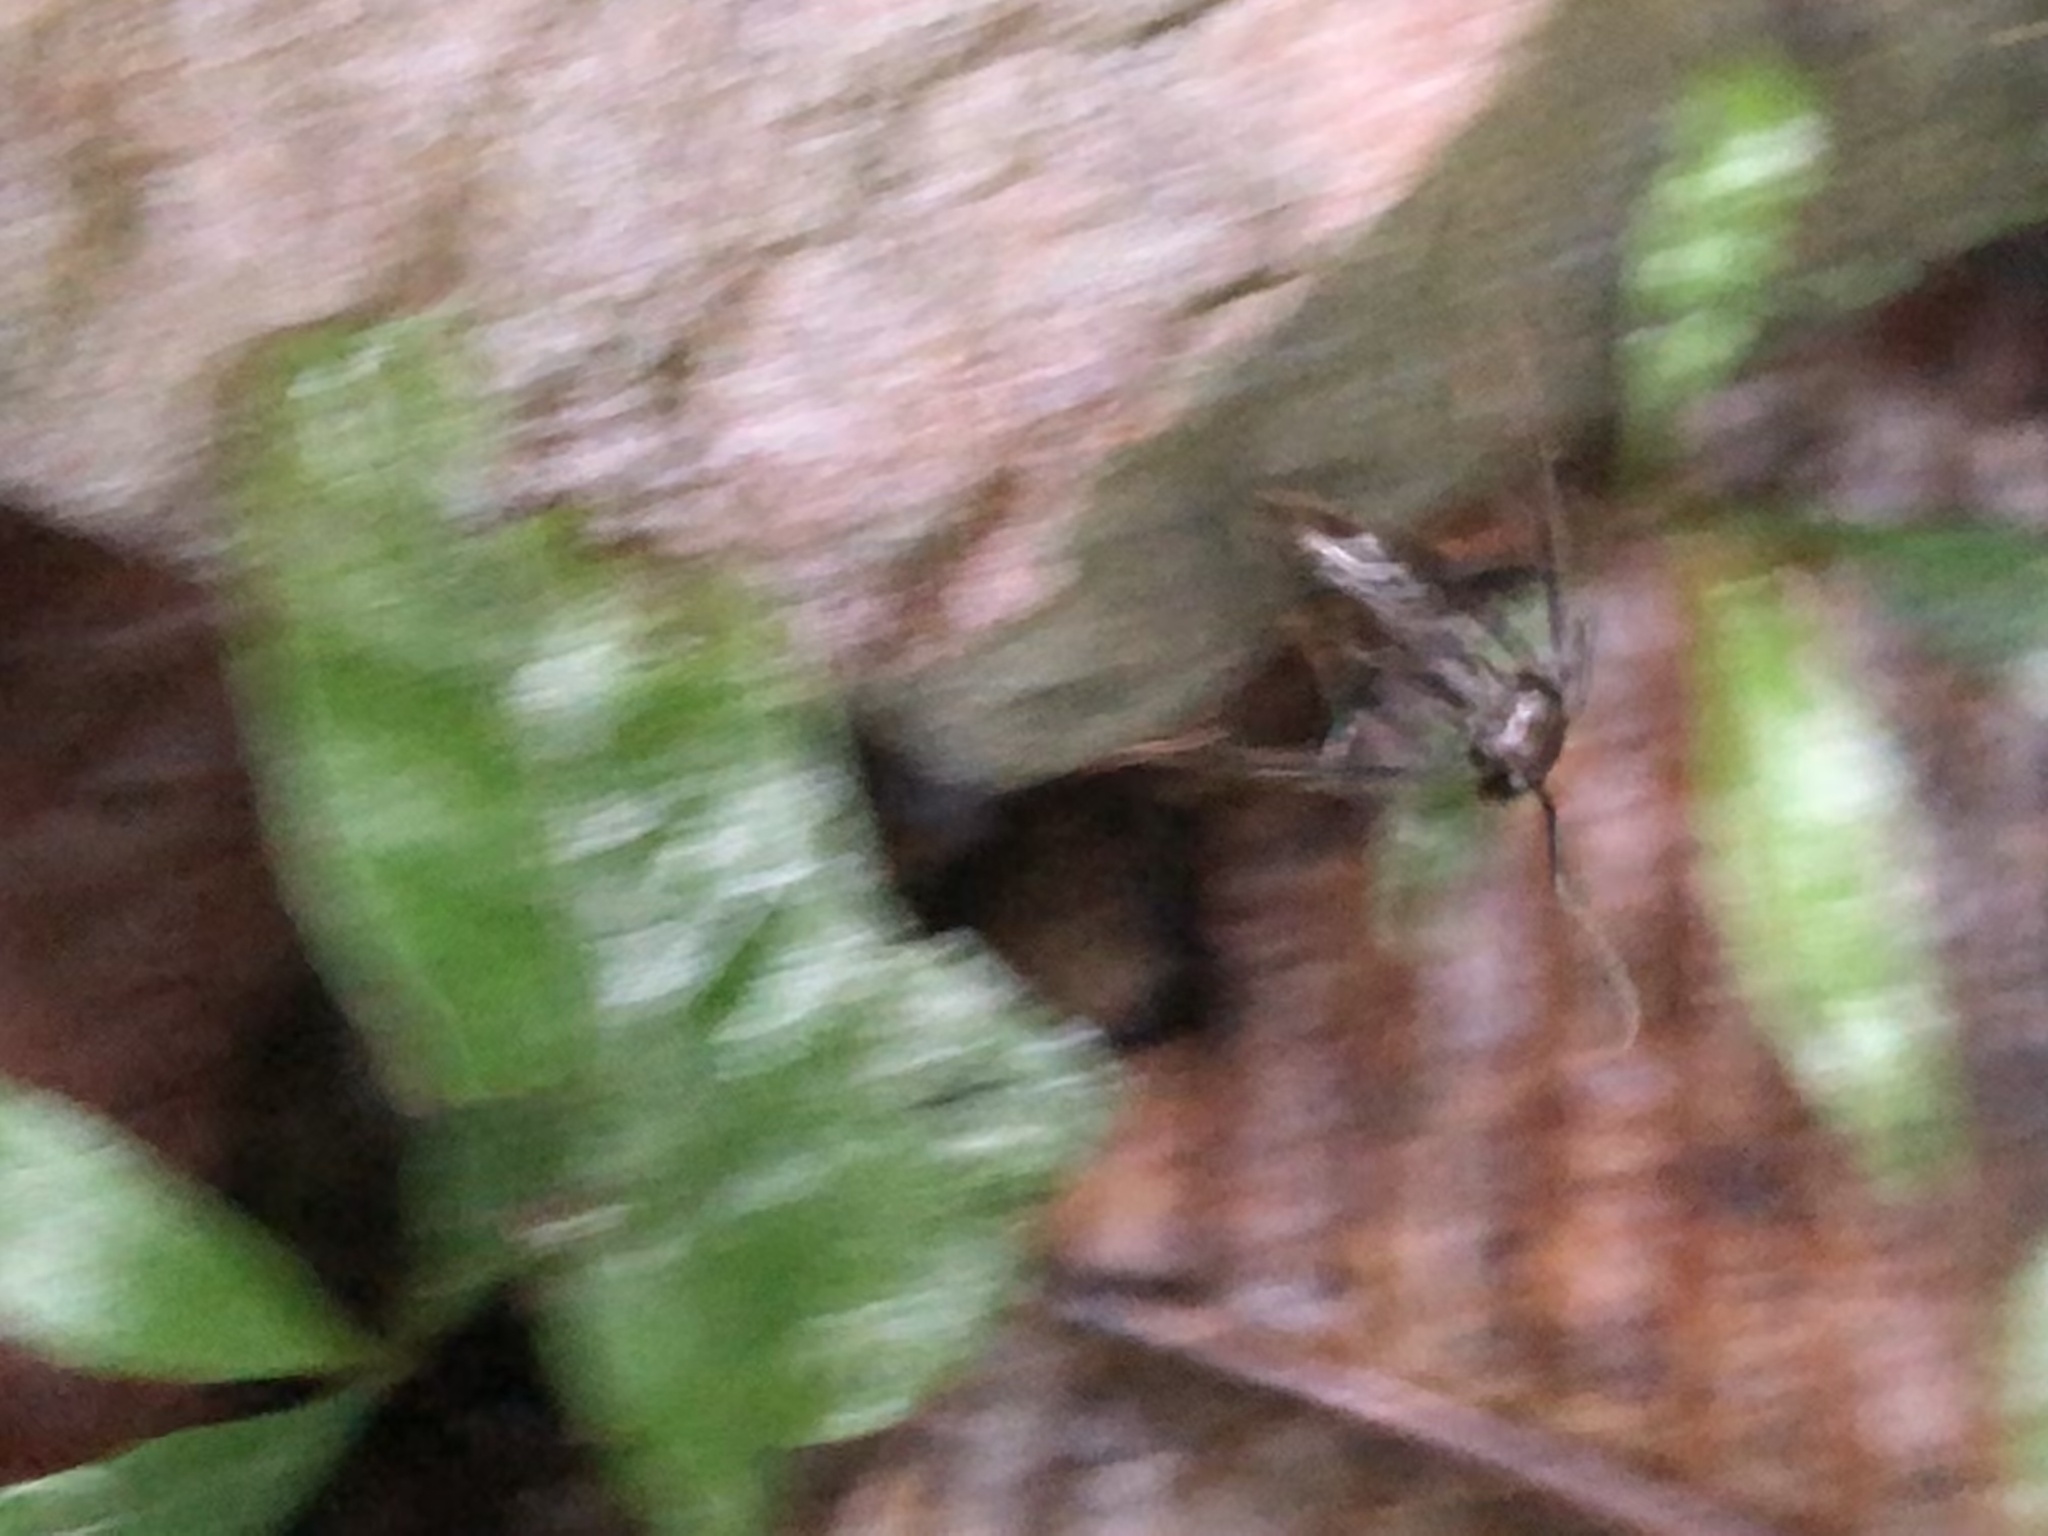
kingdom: Animalia
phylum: Arthropoda
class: Insecta
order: Hymenoptera
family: Formicidae
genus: Paraponera
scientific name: Paraponera clavata
